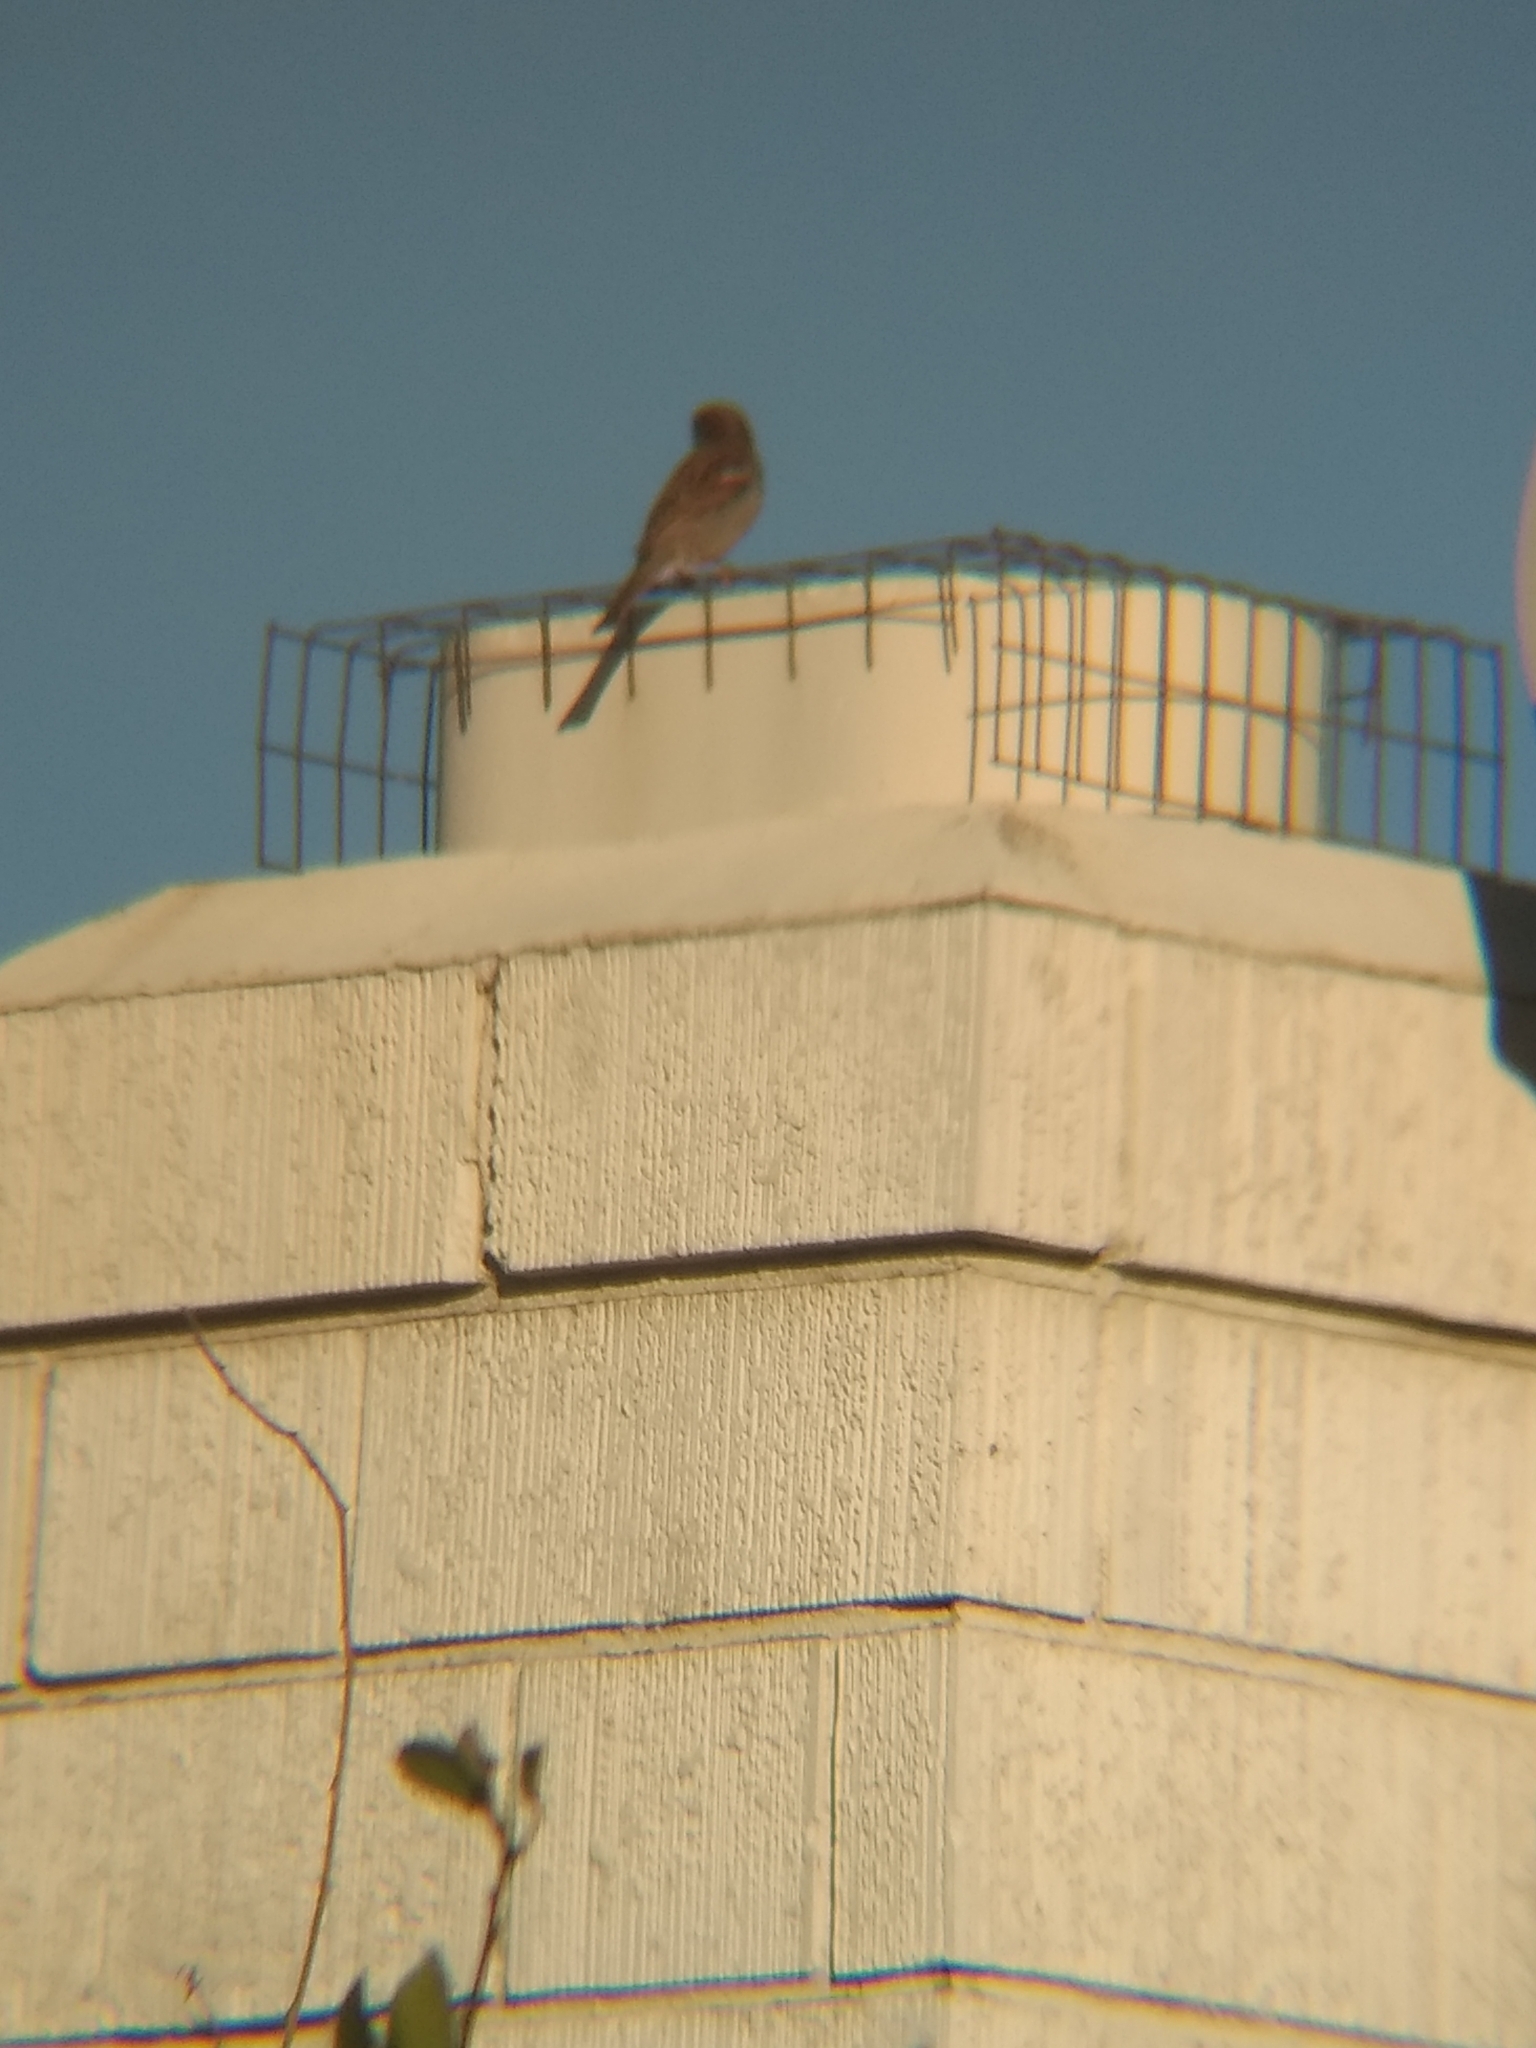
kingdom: Animalia
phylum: Chordata
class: Aves
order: Passeriformes
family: Passeridae
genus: Passer
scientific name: Passer domesticus
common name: House sparrow
